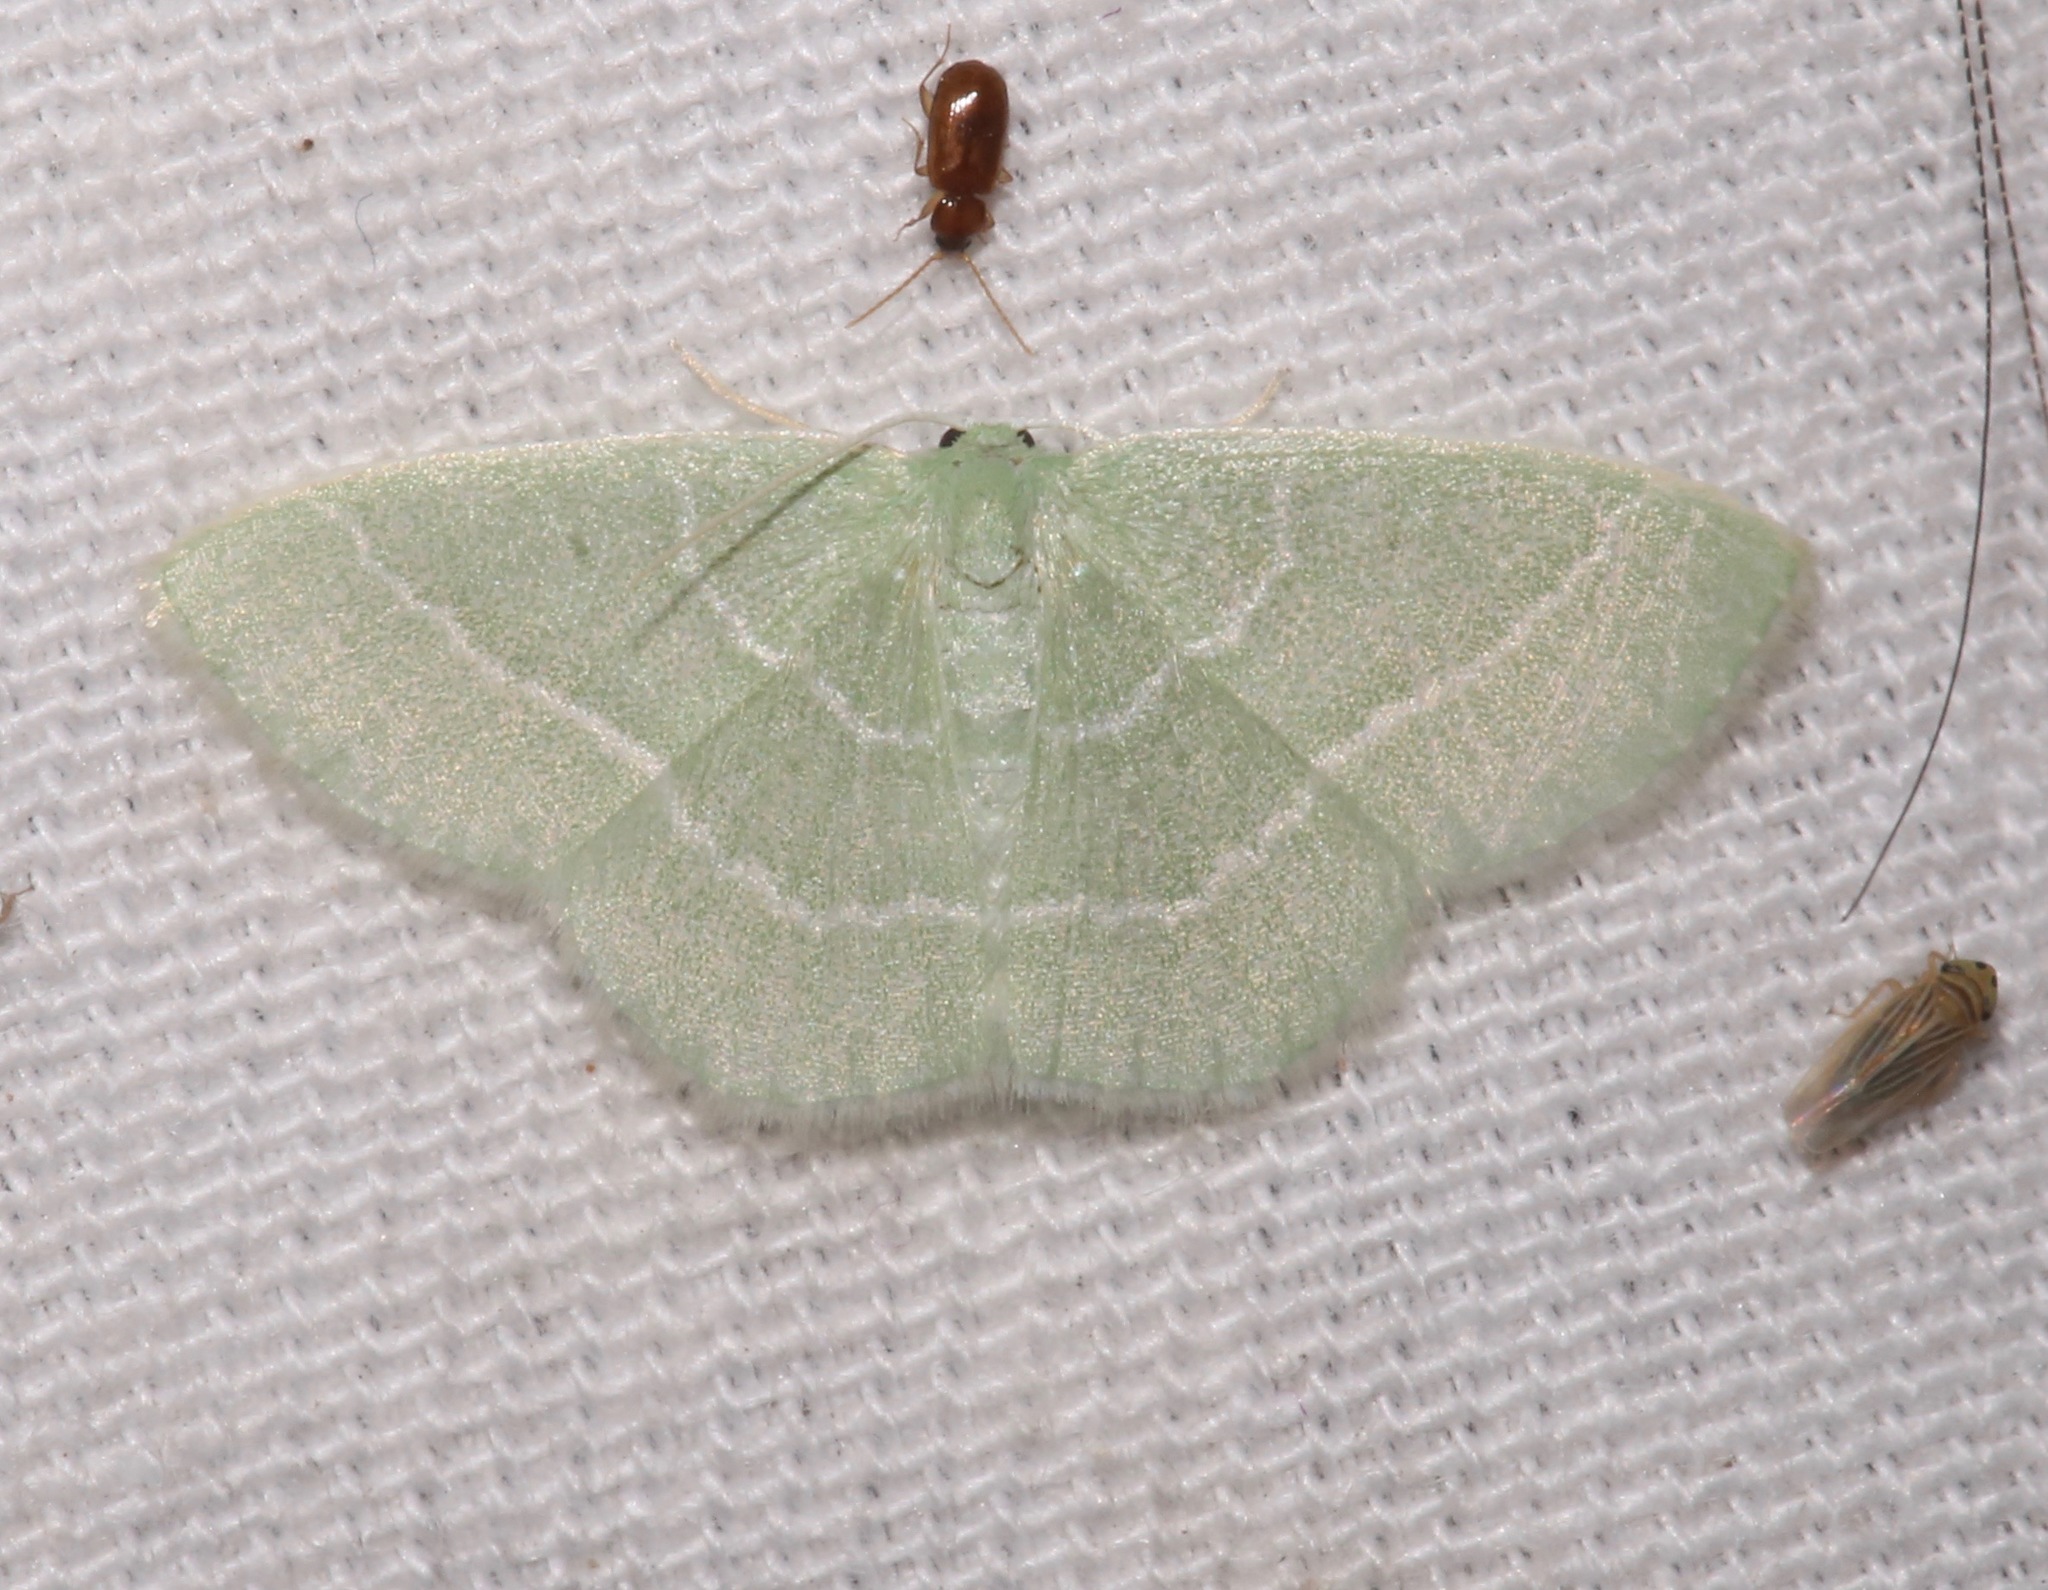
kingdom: Animalia
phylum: Arthropoda
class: Insecta
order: Lepidoptera
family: Geometridae
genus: Nemoria
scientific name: Nemoria elfa
